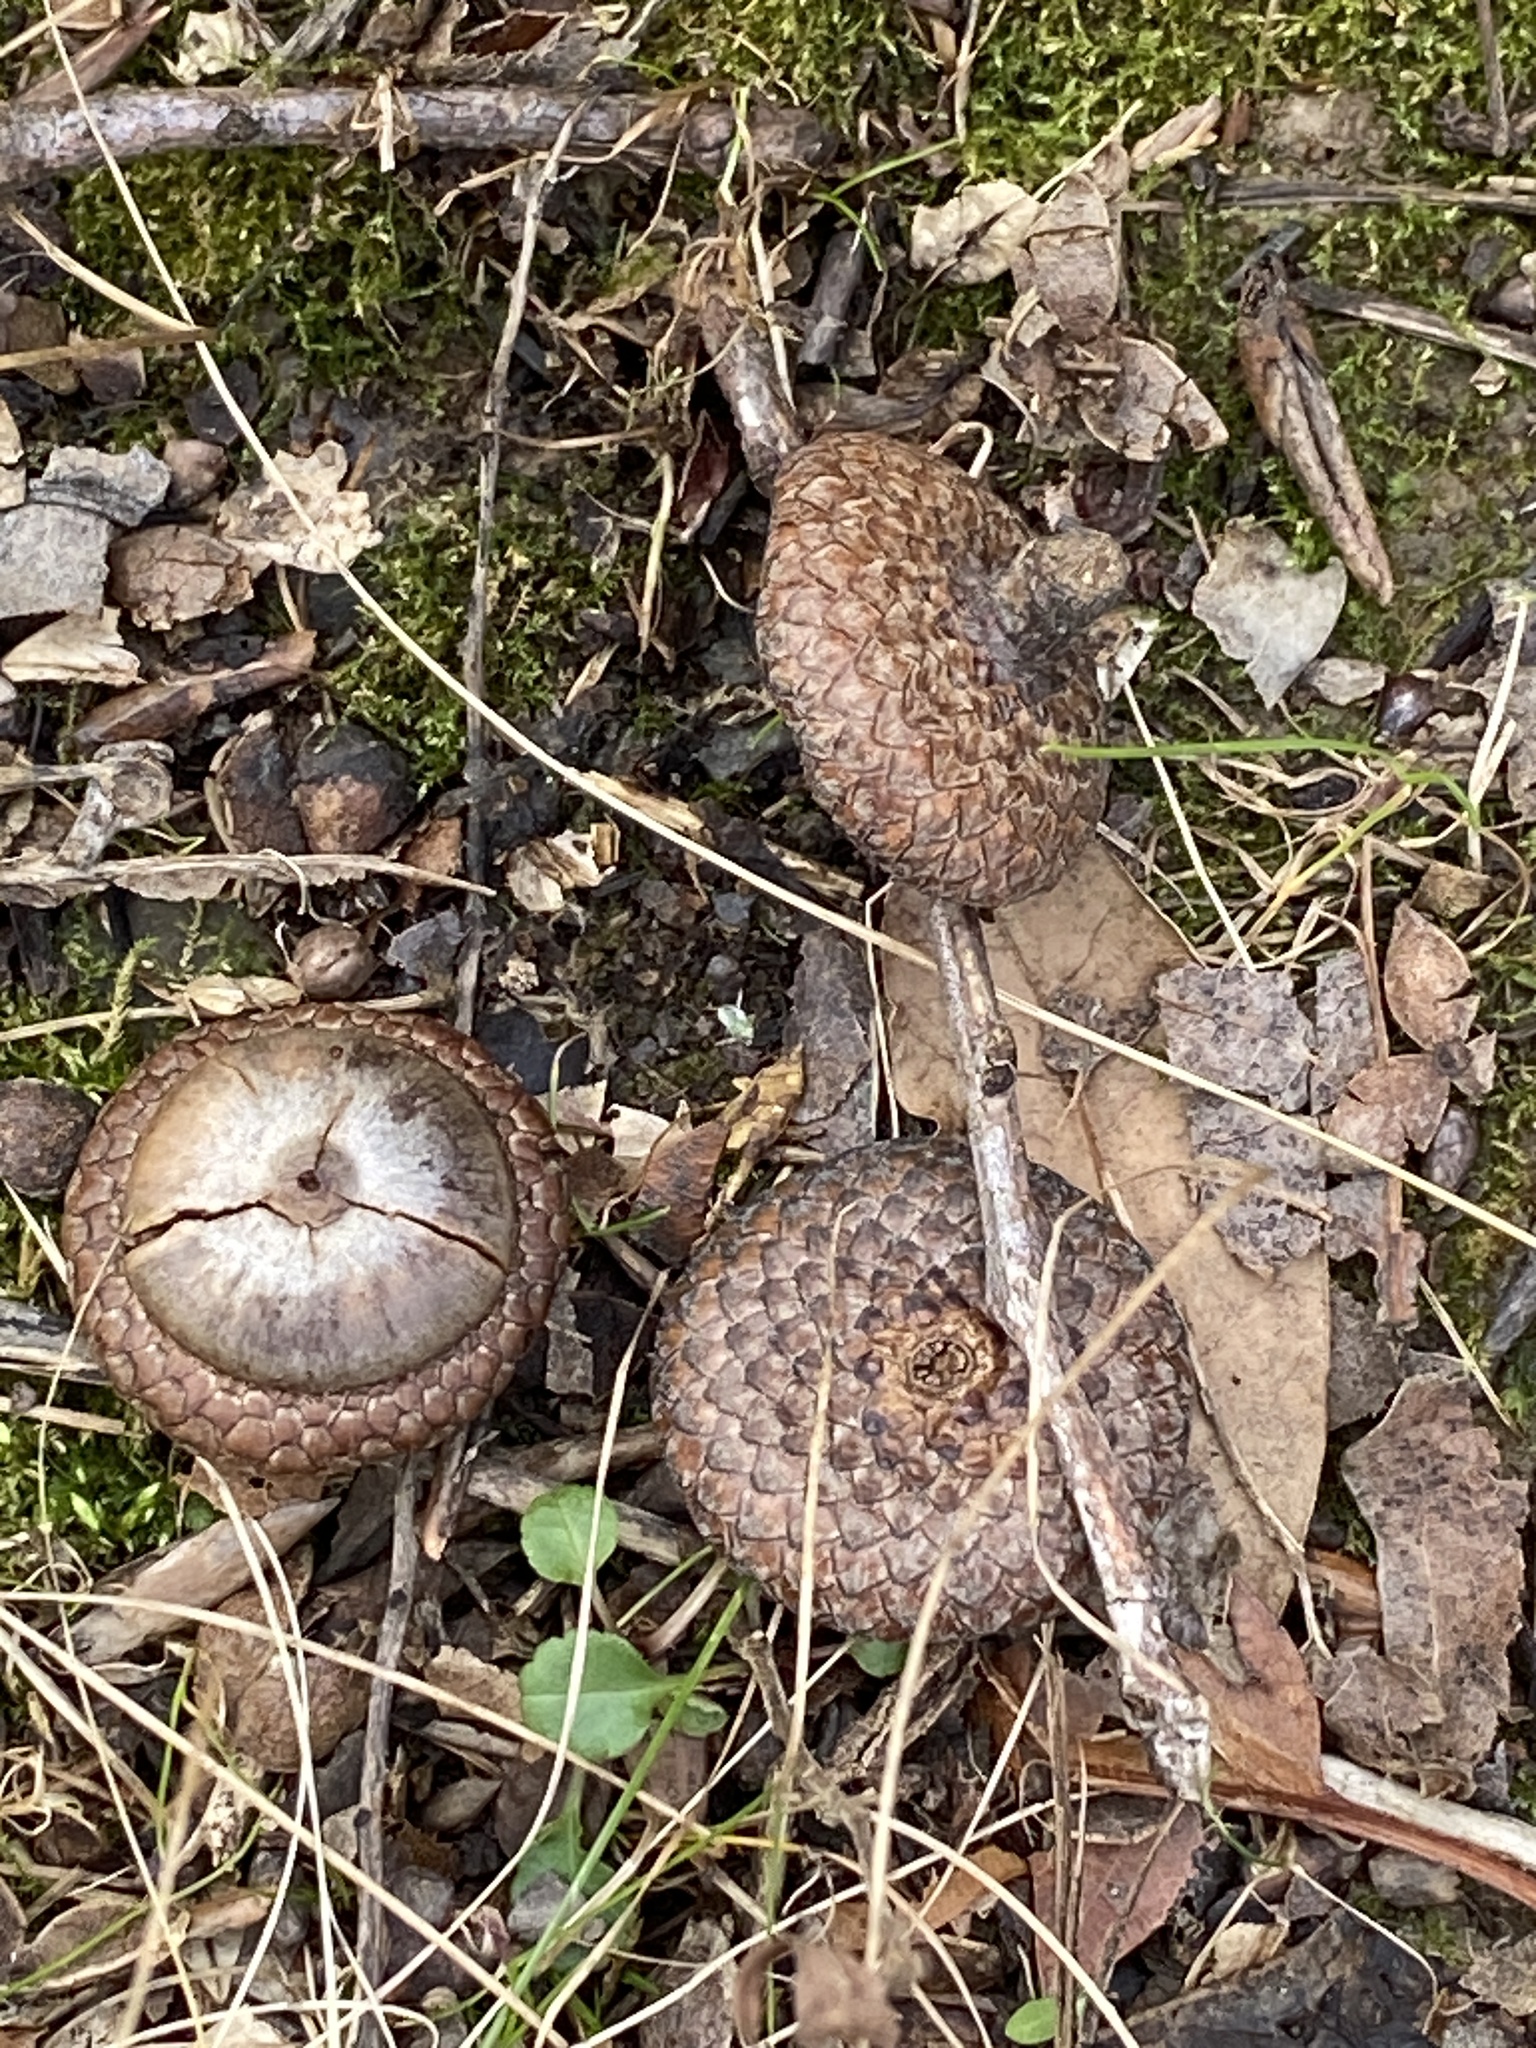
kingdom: Plantae
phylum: Tracheophyta
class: Magnoliopsida
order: Fagales
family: Fagaceae
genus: Quercus
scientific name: Quercus rubra
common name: Red oak
